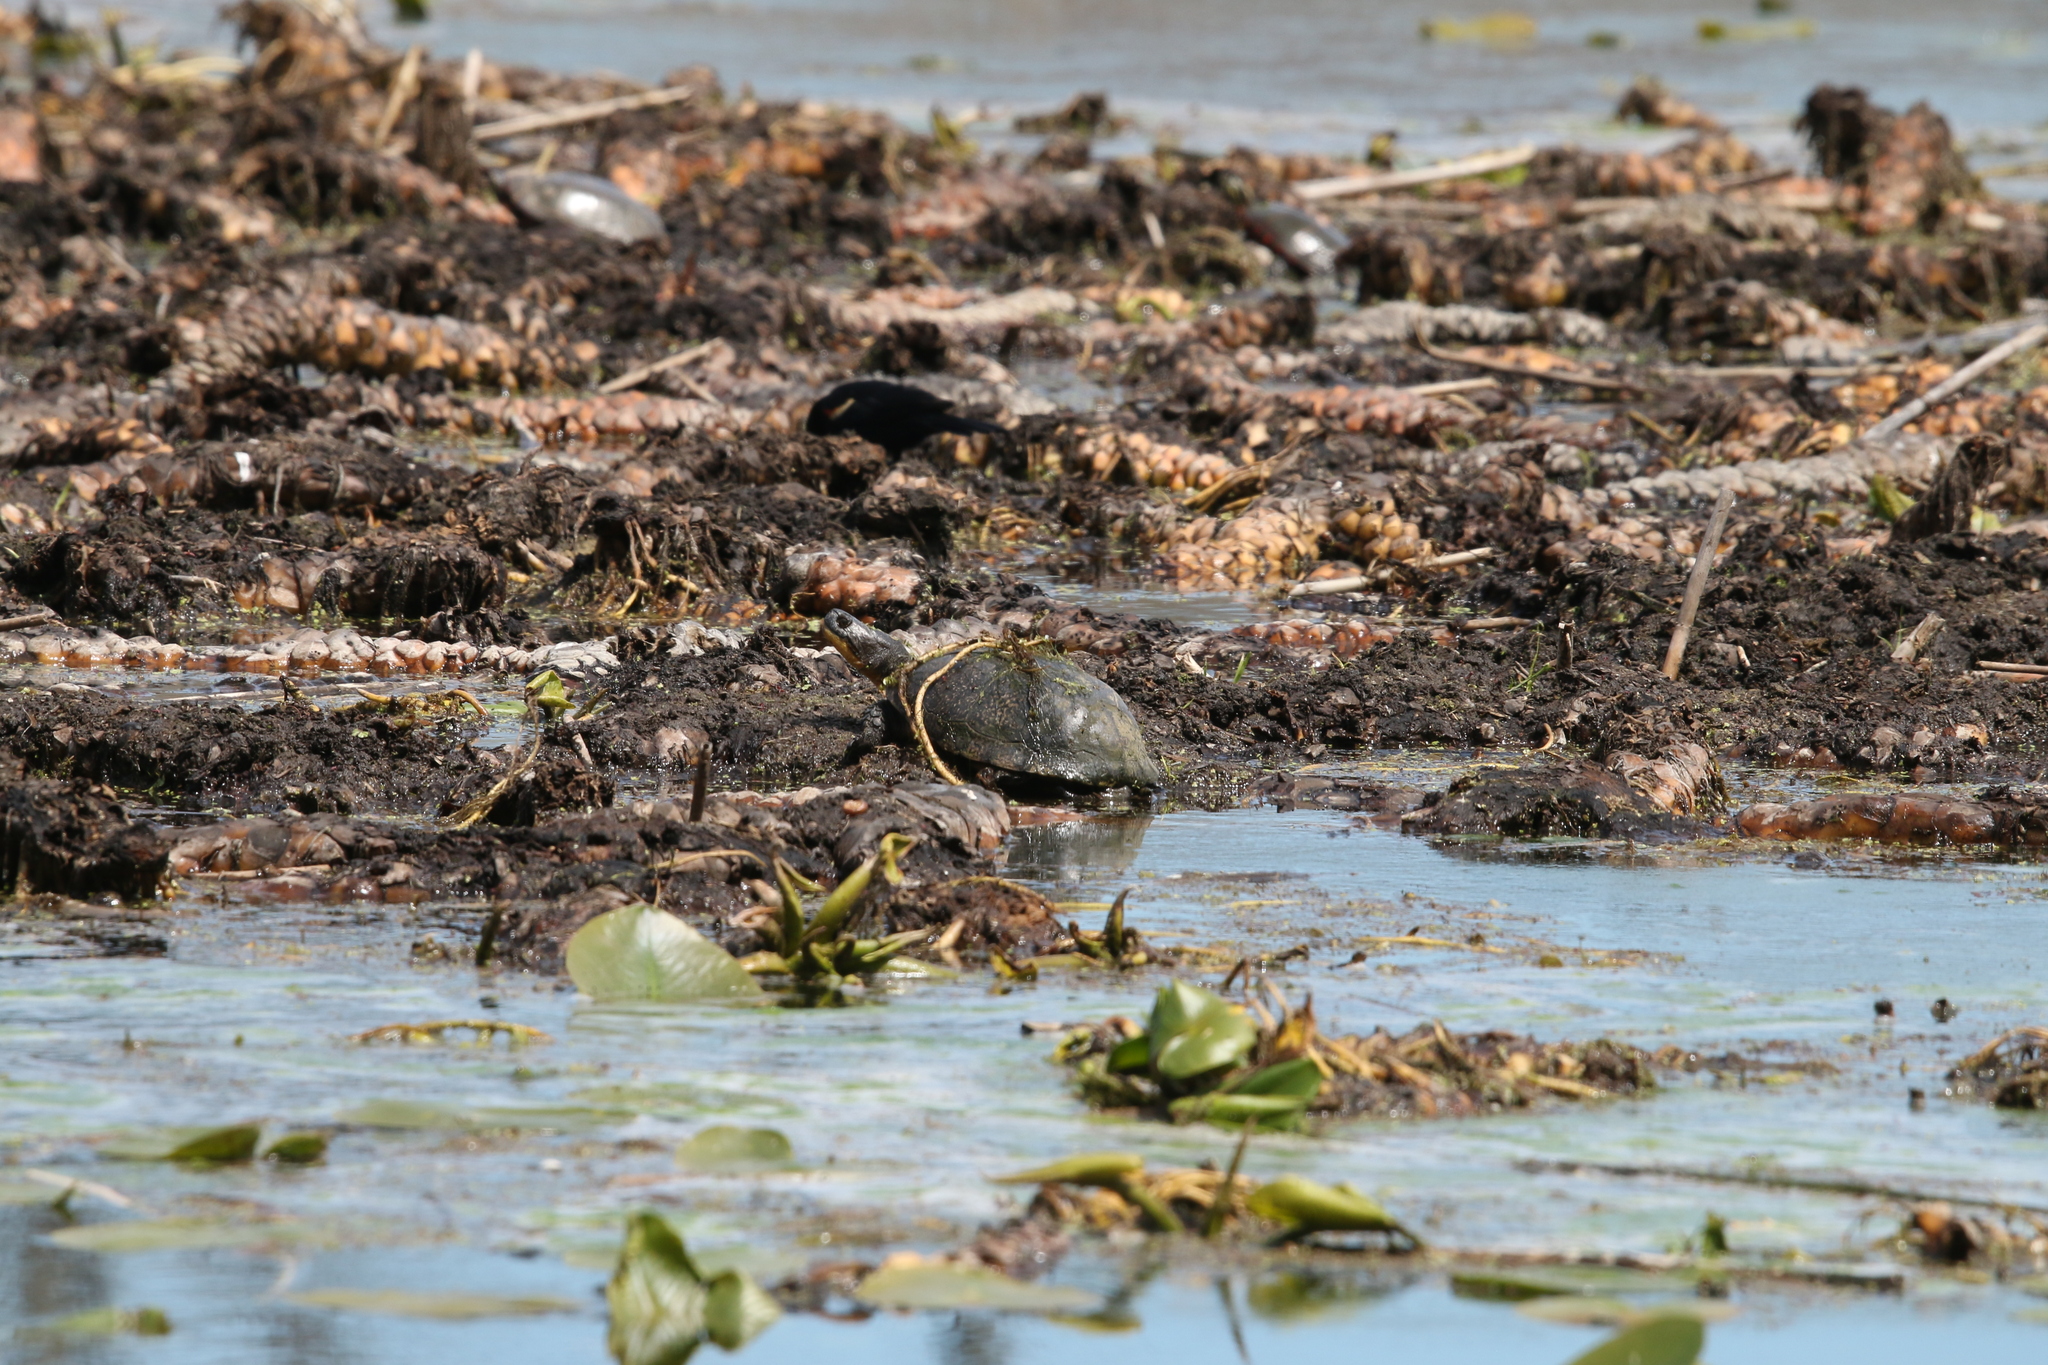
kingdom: Animalia
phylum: Chordata
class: Testudines
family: Emydidae
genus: Emys
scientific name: Emys blandingii
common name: Blanding's turtle
